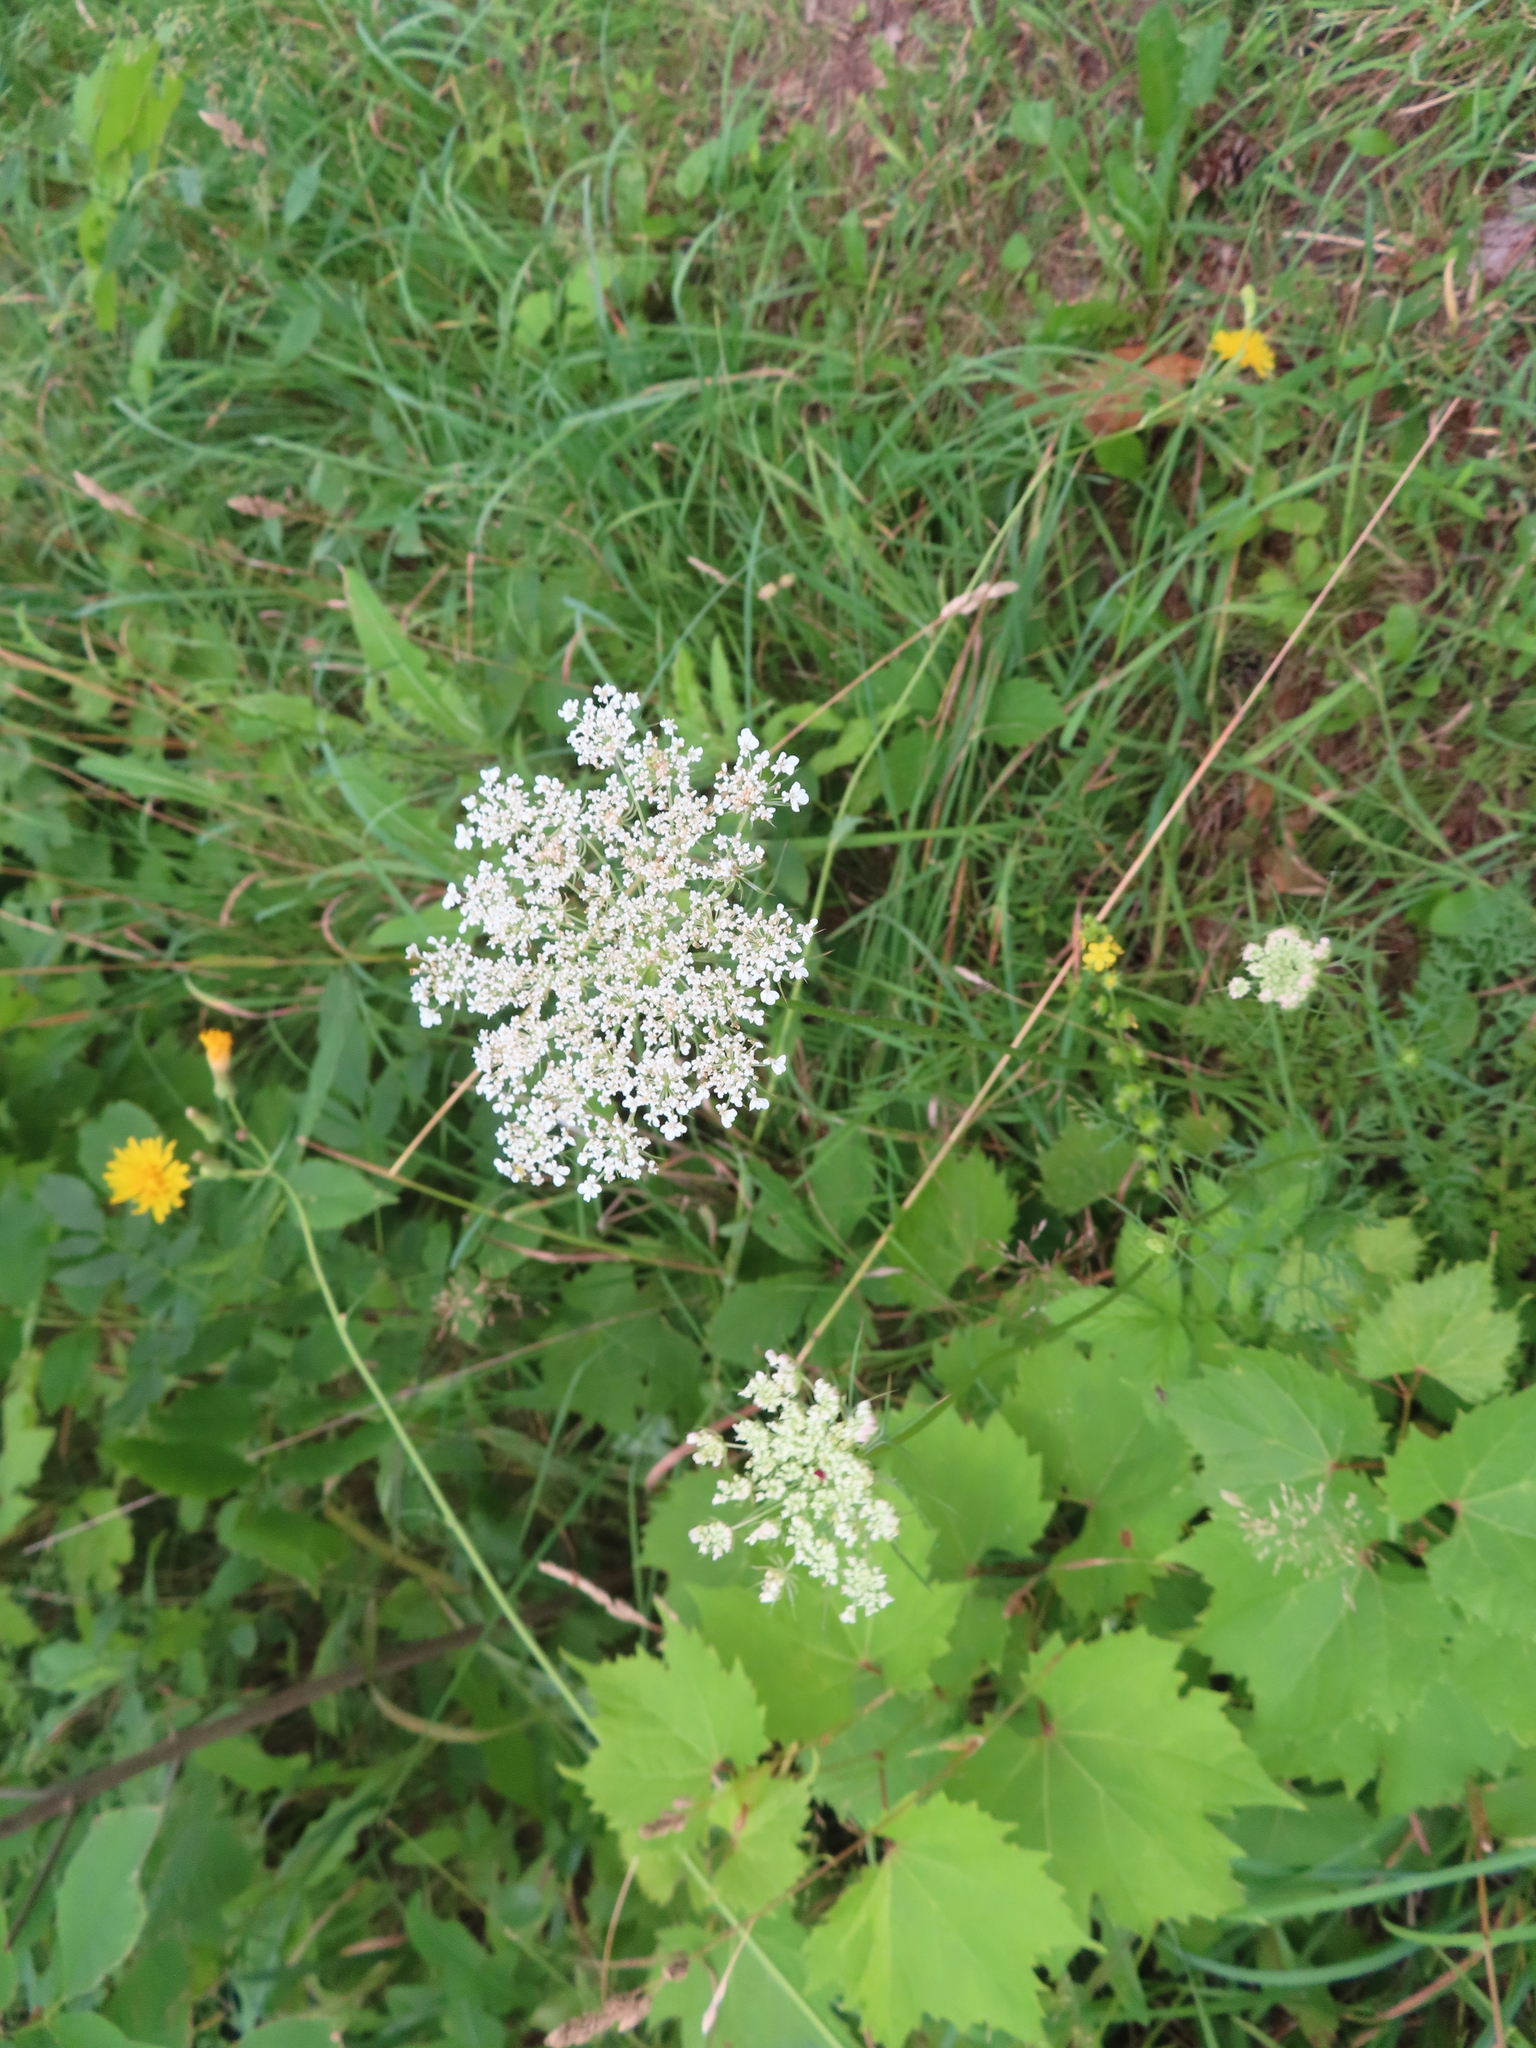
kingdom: Plantae
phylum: Tracheophyta
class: Magnoliopsida
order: Apiales
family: Apiaceae
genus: Daucus
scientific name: Daucus carota
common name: Wild carrot
